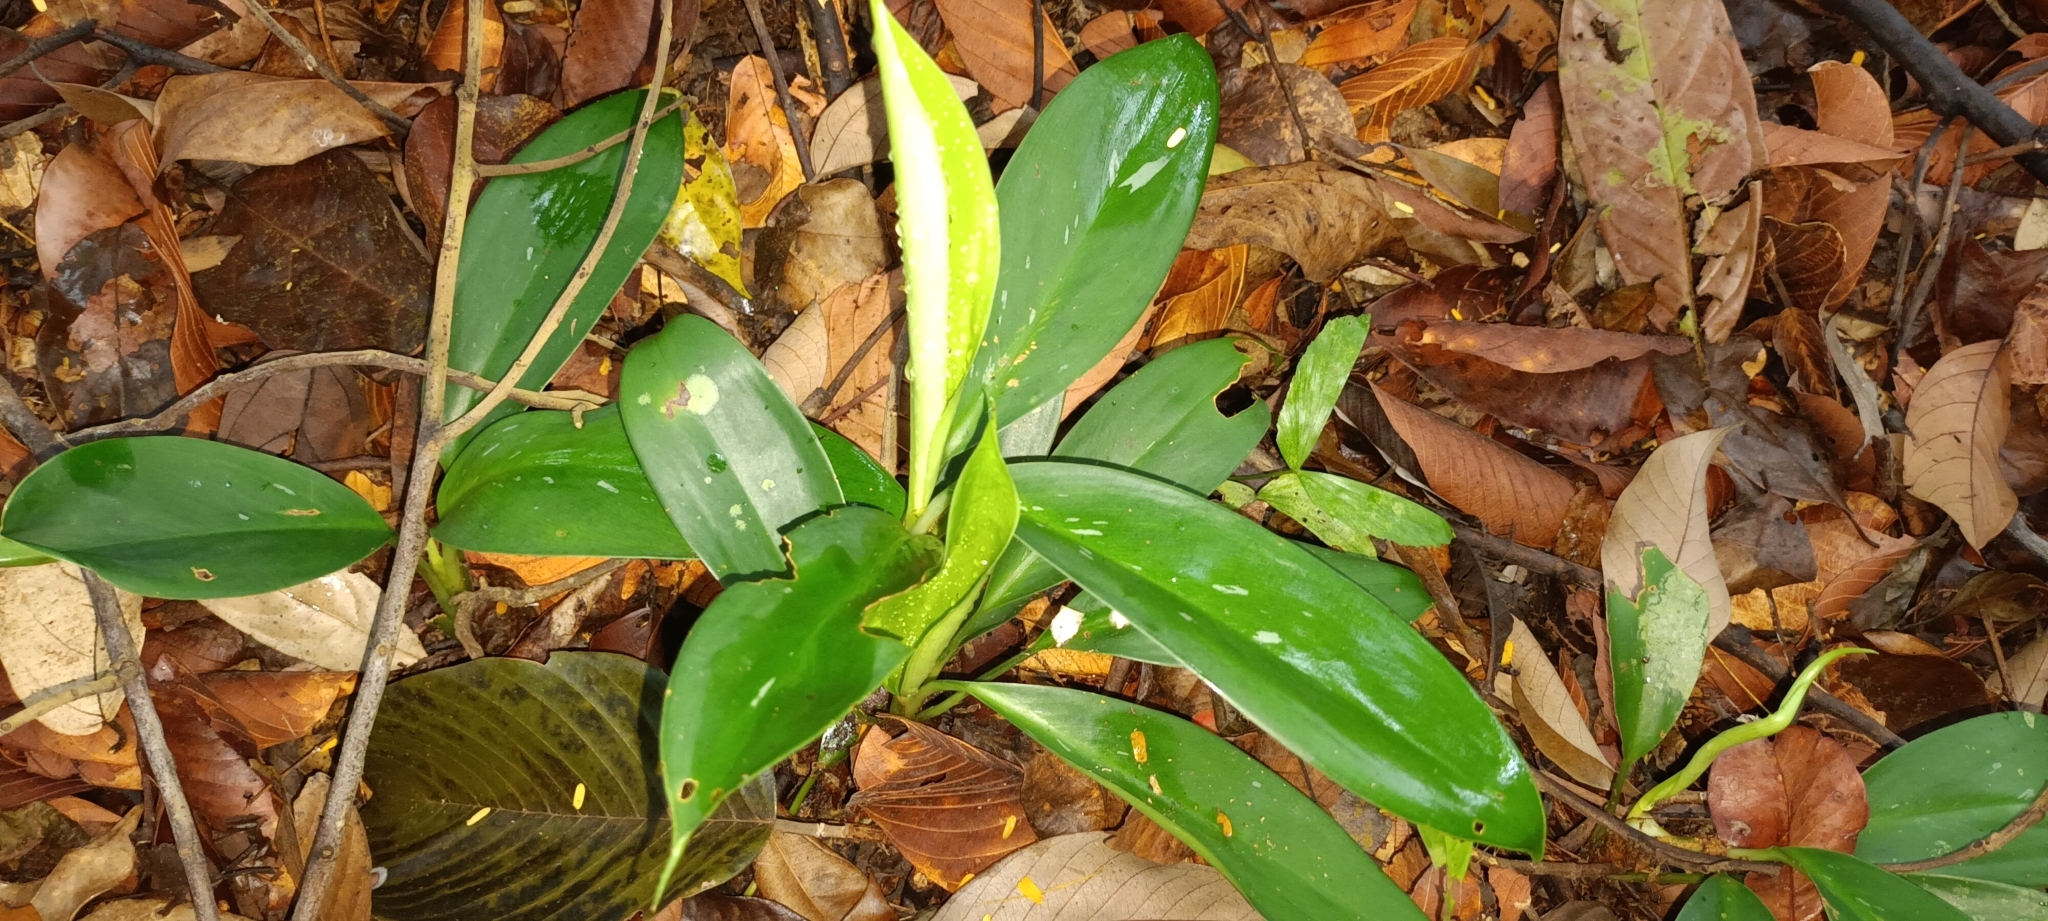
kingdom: Plantae
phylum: Tracheophyta
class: Liliopsida
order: Alismatales
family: Araceae
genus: Aglaonema
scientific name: Aglaonema nitidum
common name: Aglaonema aroid
